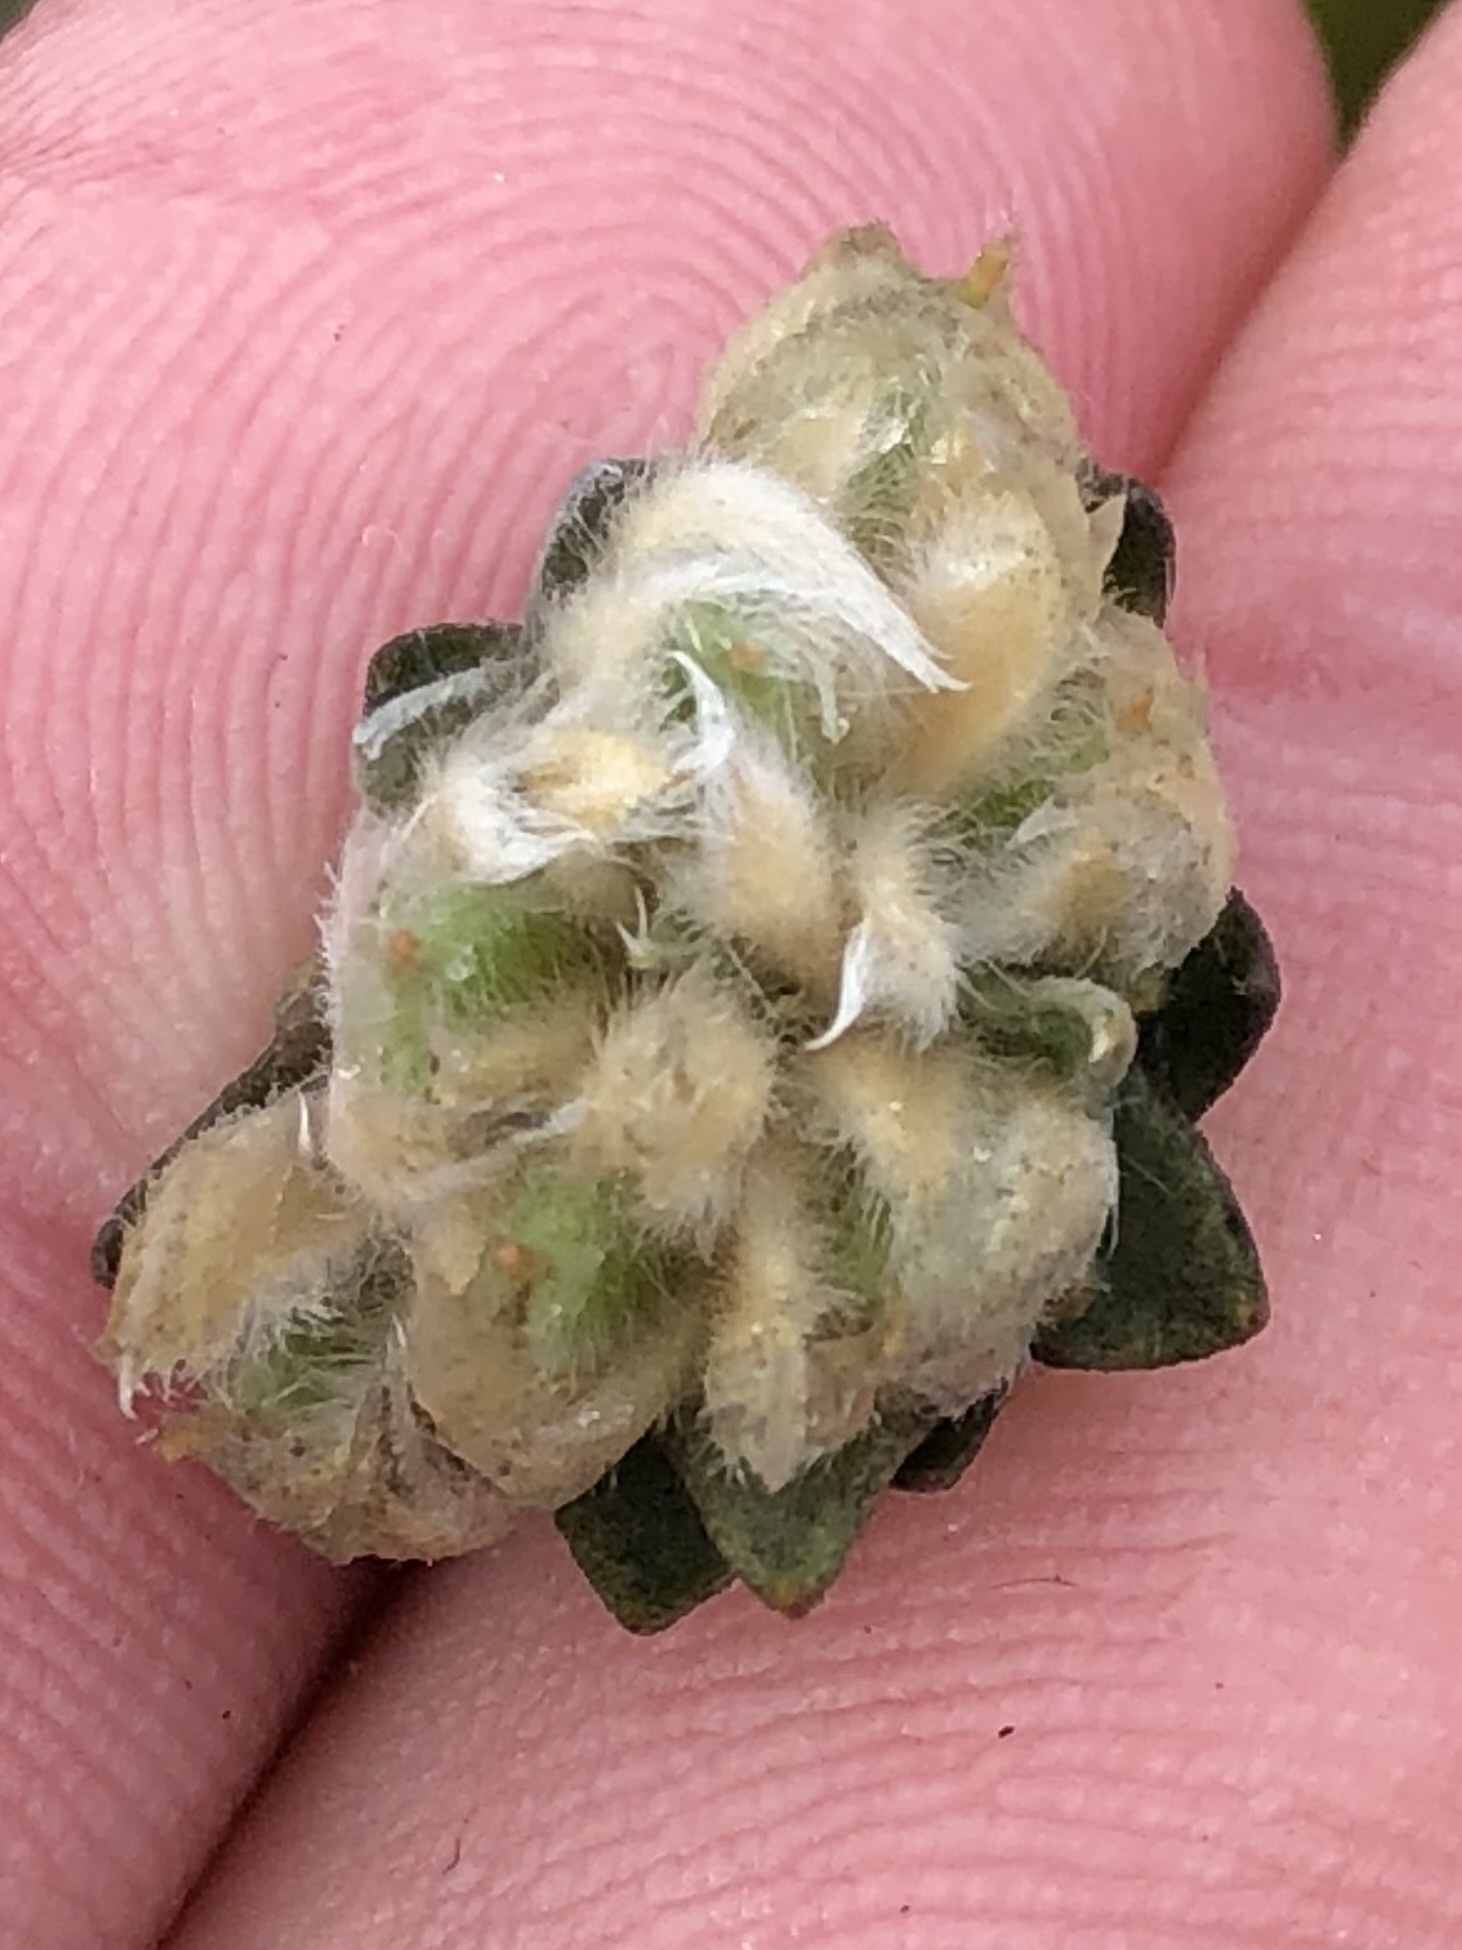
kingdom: Plantae
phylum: Tracheophyta
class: Magnoliopsida
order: Fabales
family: Fabaceae
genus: Amphithalea
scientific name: Amphithalea tomentosa
